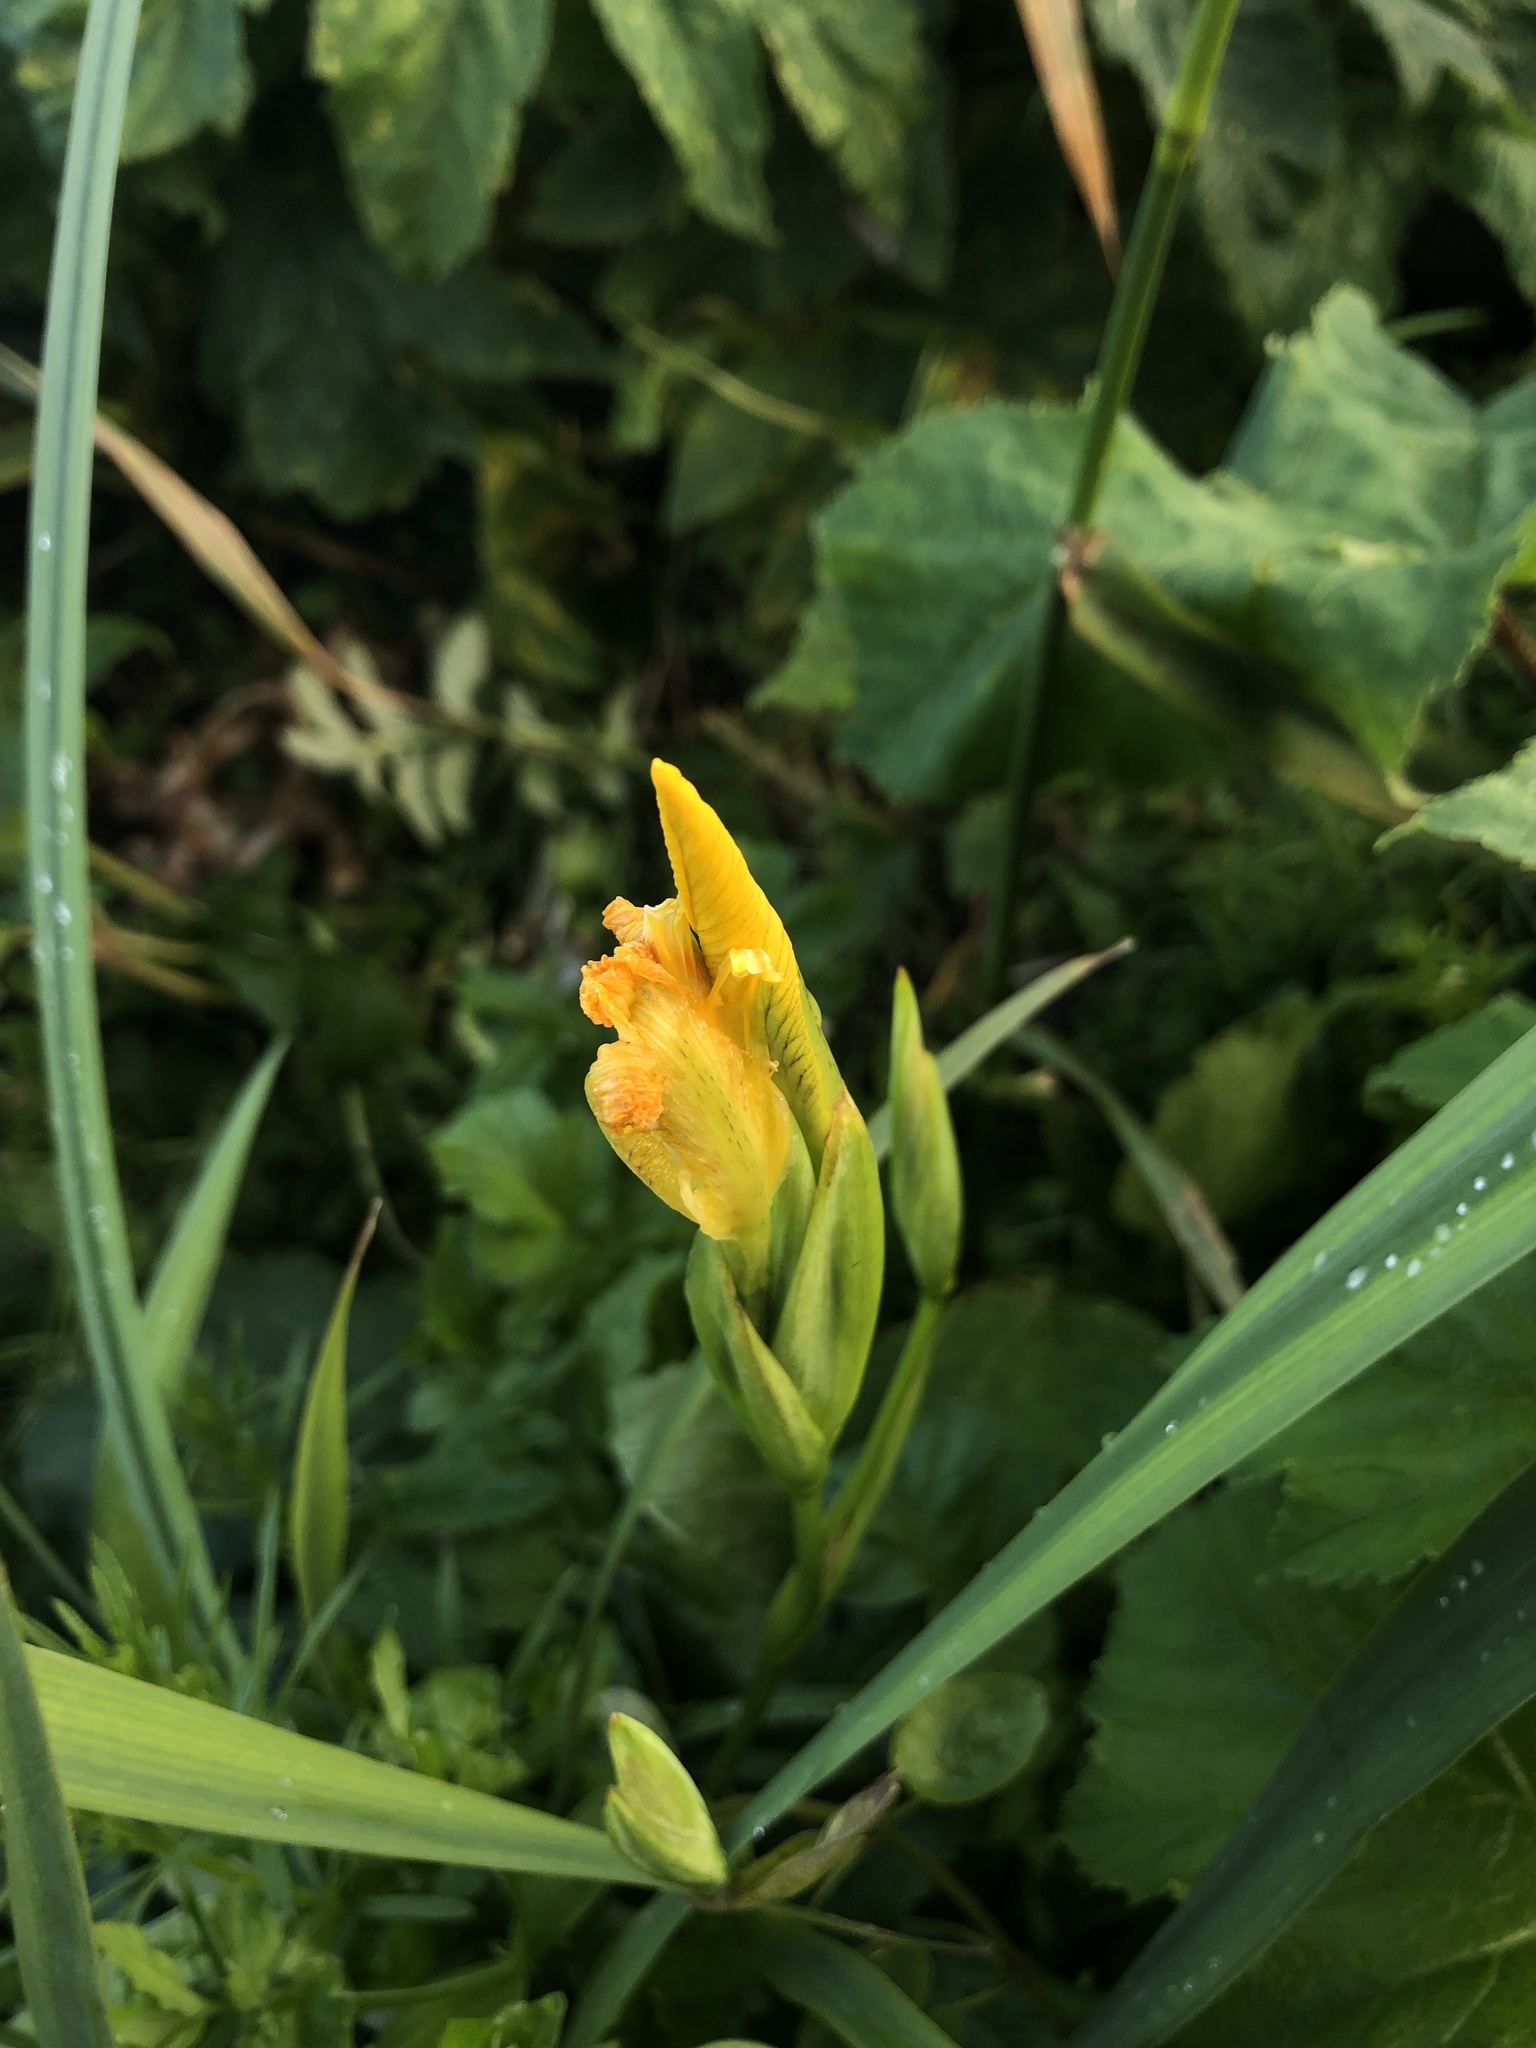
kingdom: Plantae
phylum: Tracheophyta
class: Liliopsida
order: Asparagales
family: Iridaceae
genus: Iris
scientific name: Iris pseudacorus
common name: Yellow flag
